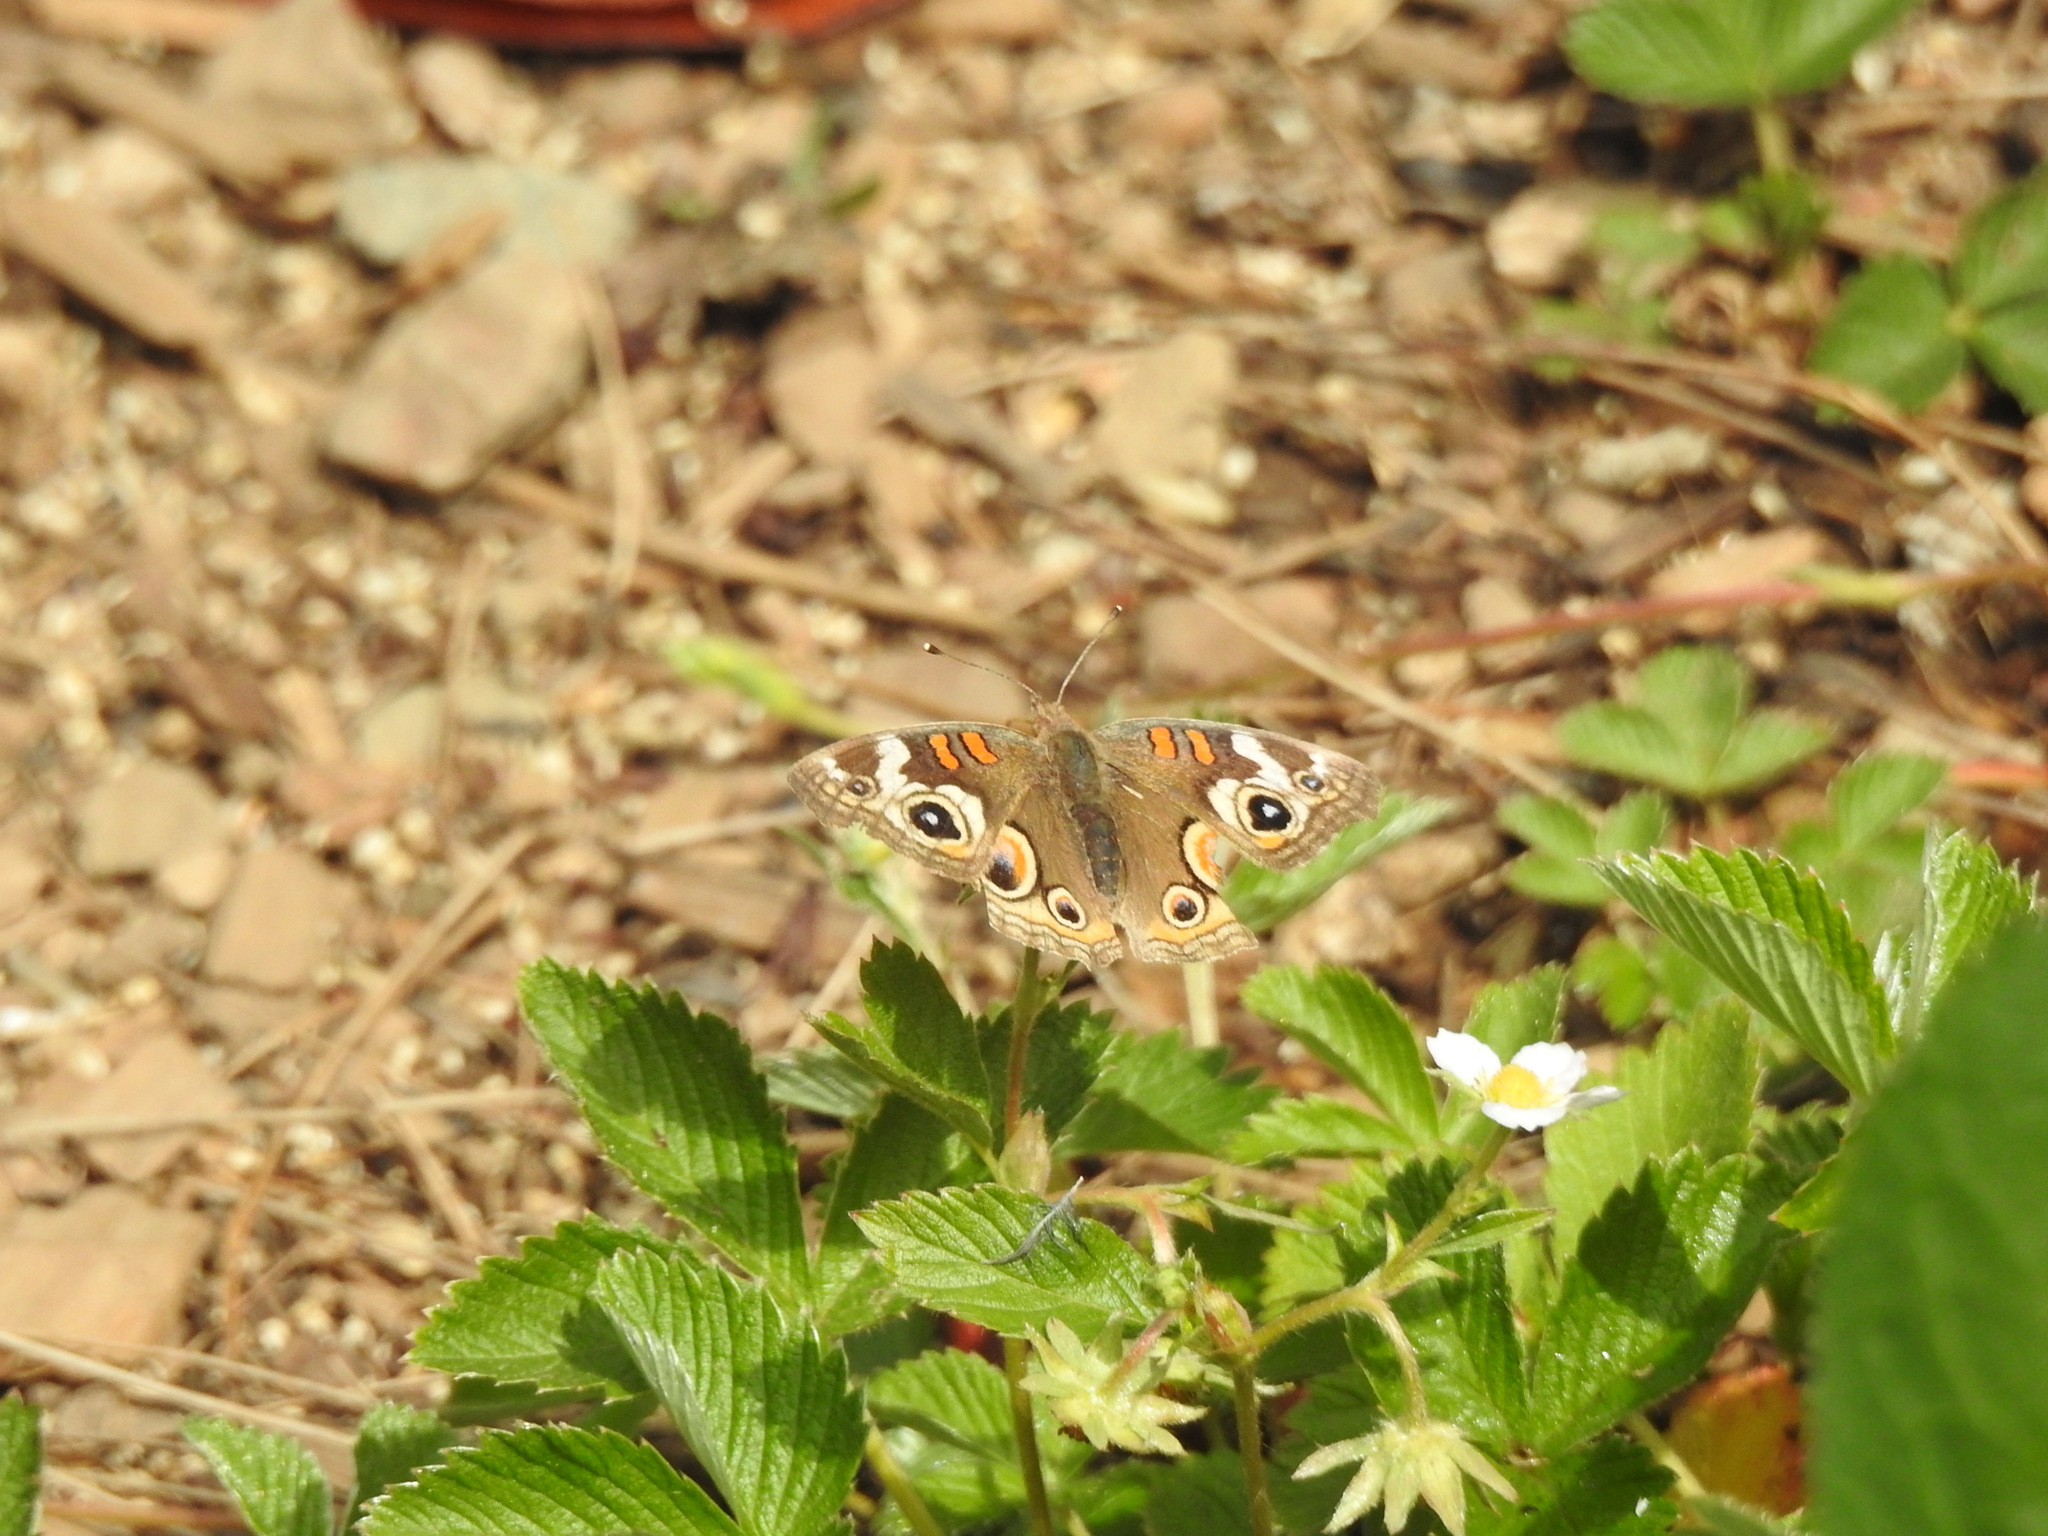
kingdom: Animalia
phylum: Arthropoda
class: Insecta
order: Lepidoptera
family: Nymphalidae
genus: Junonia
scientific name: Junonia grisea
